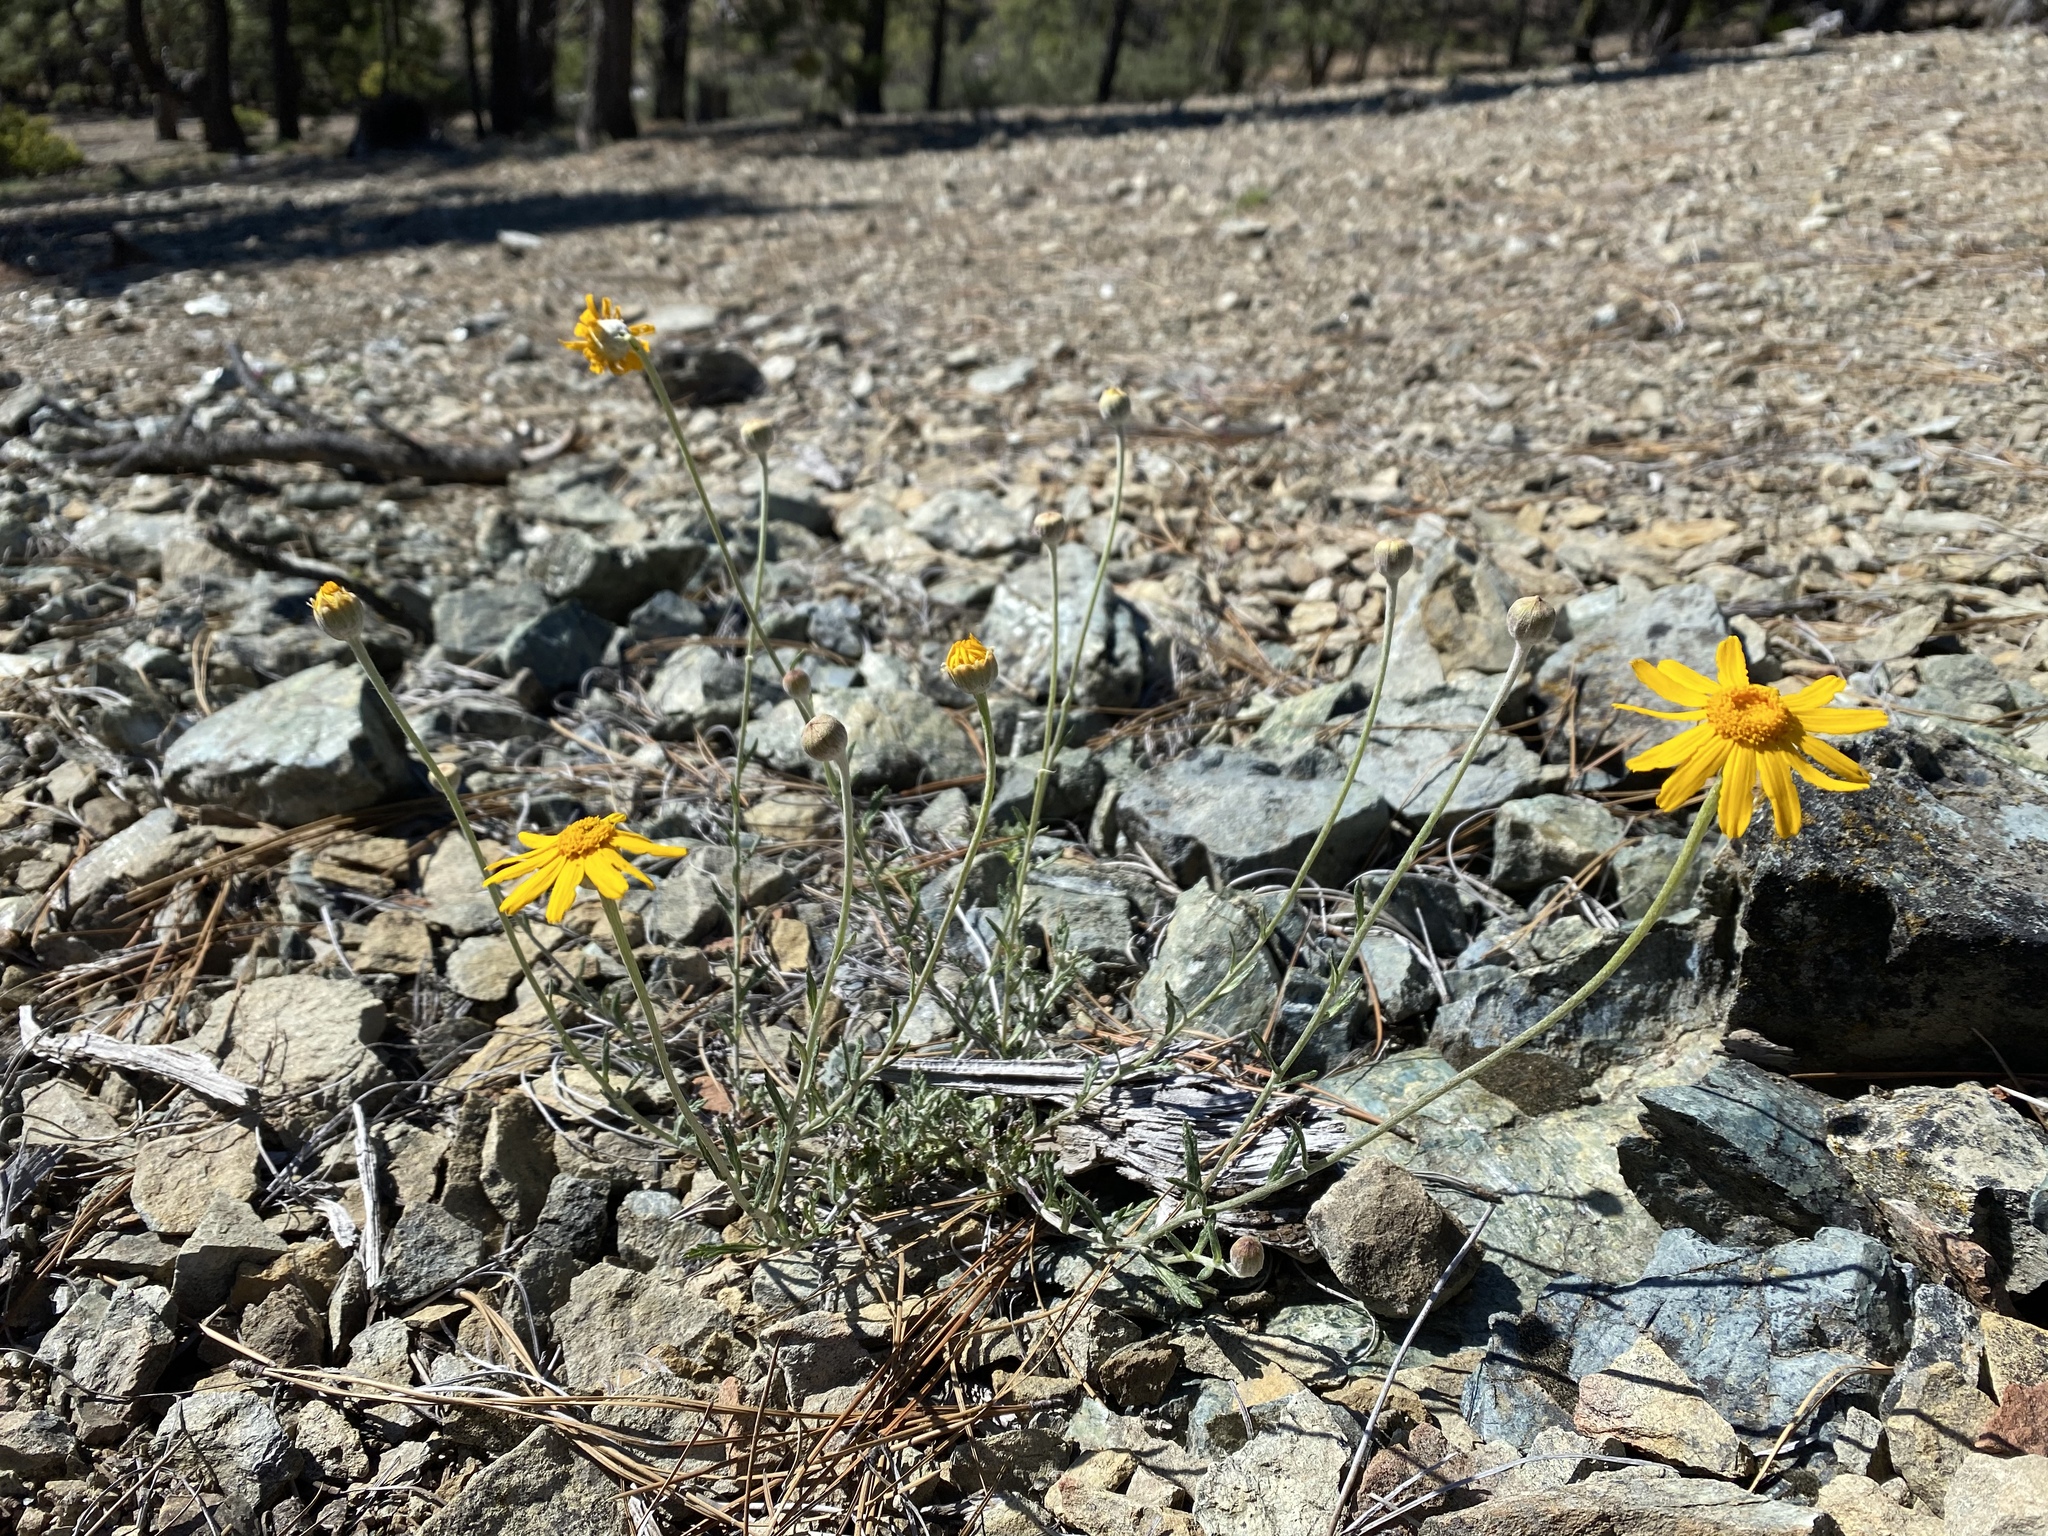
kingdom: Plantae
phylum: Tracheophyta
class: Magnoliopsida
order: Asterales
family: Asteraceae
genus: Eriophyllum
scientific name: Eriophyllum lanatum
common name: Common woolly-sunflower
